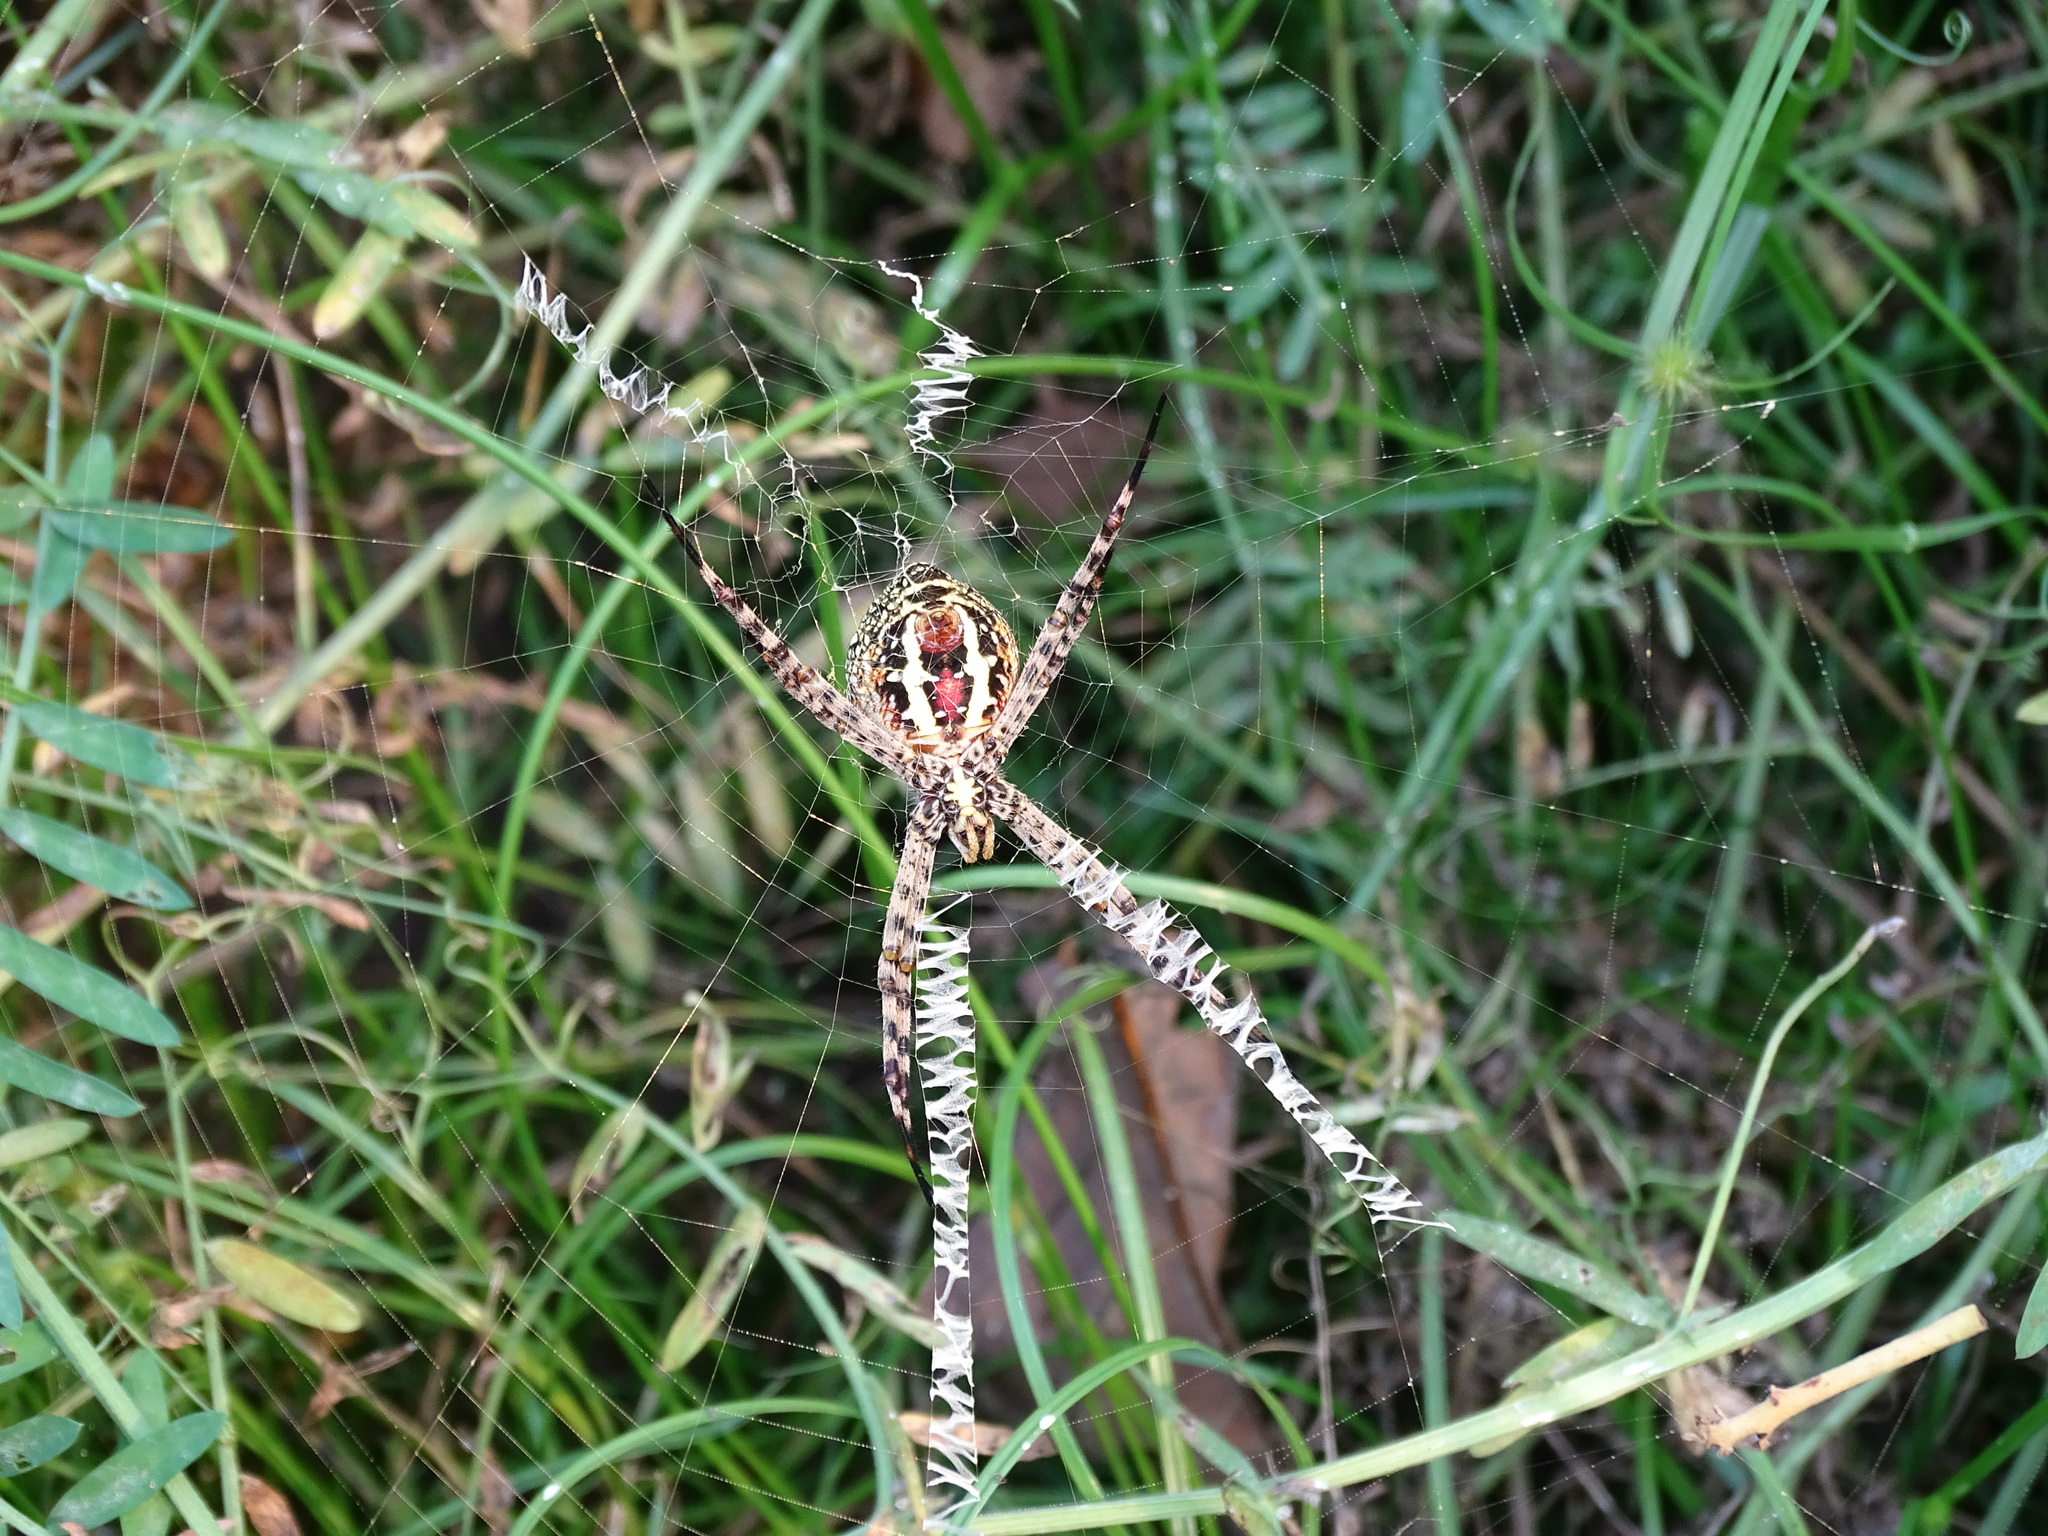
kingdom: Animalia
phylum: Arthropoda
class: Arachnida
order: Araneae
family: Araneidae
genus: Argiope
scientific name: Argiope aemula
